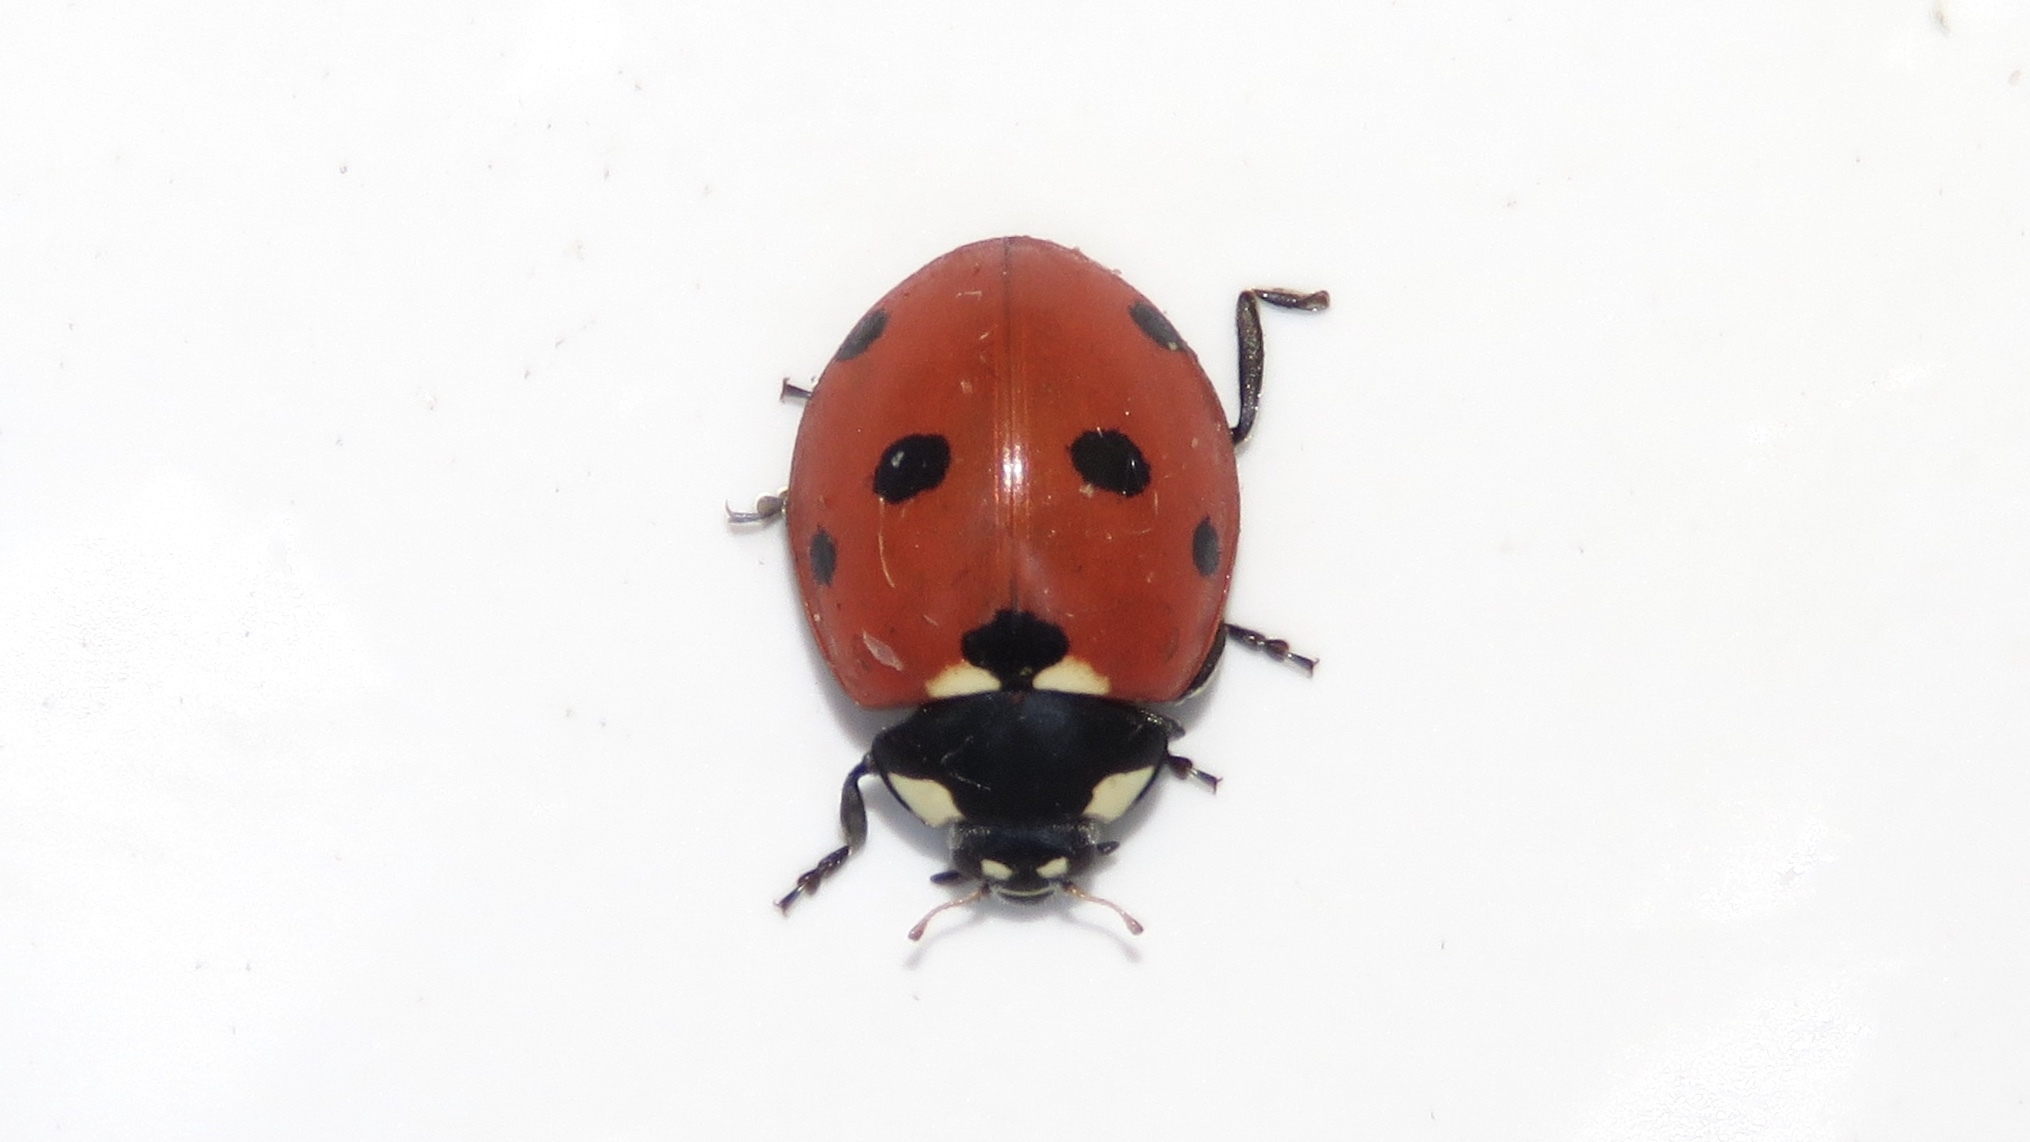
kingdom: Animalia
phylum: Arthropoda
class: Insecta
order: Coleoptera
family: Coccinellidae
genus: Coccinella
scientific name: Coccinella septempunctata
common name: Sevenspotted lady beetle
